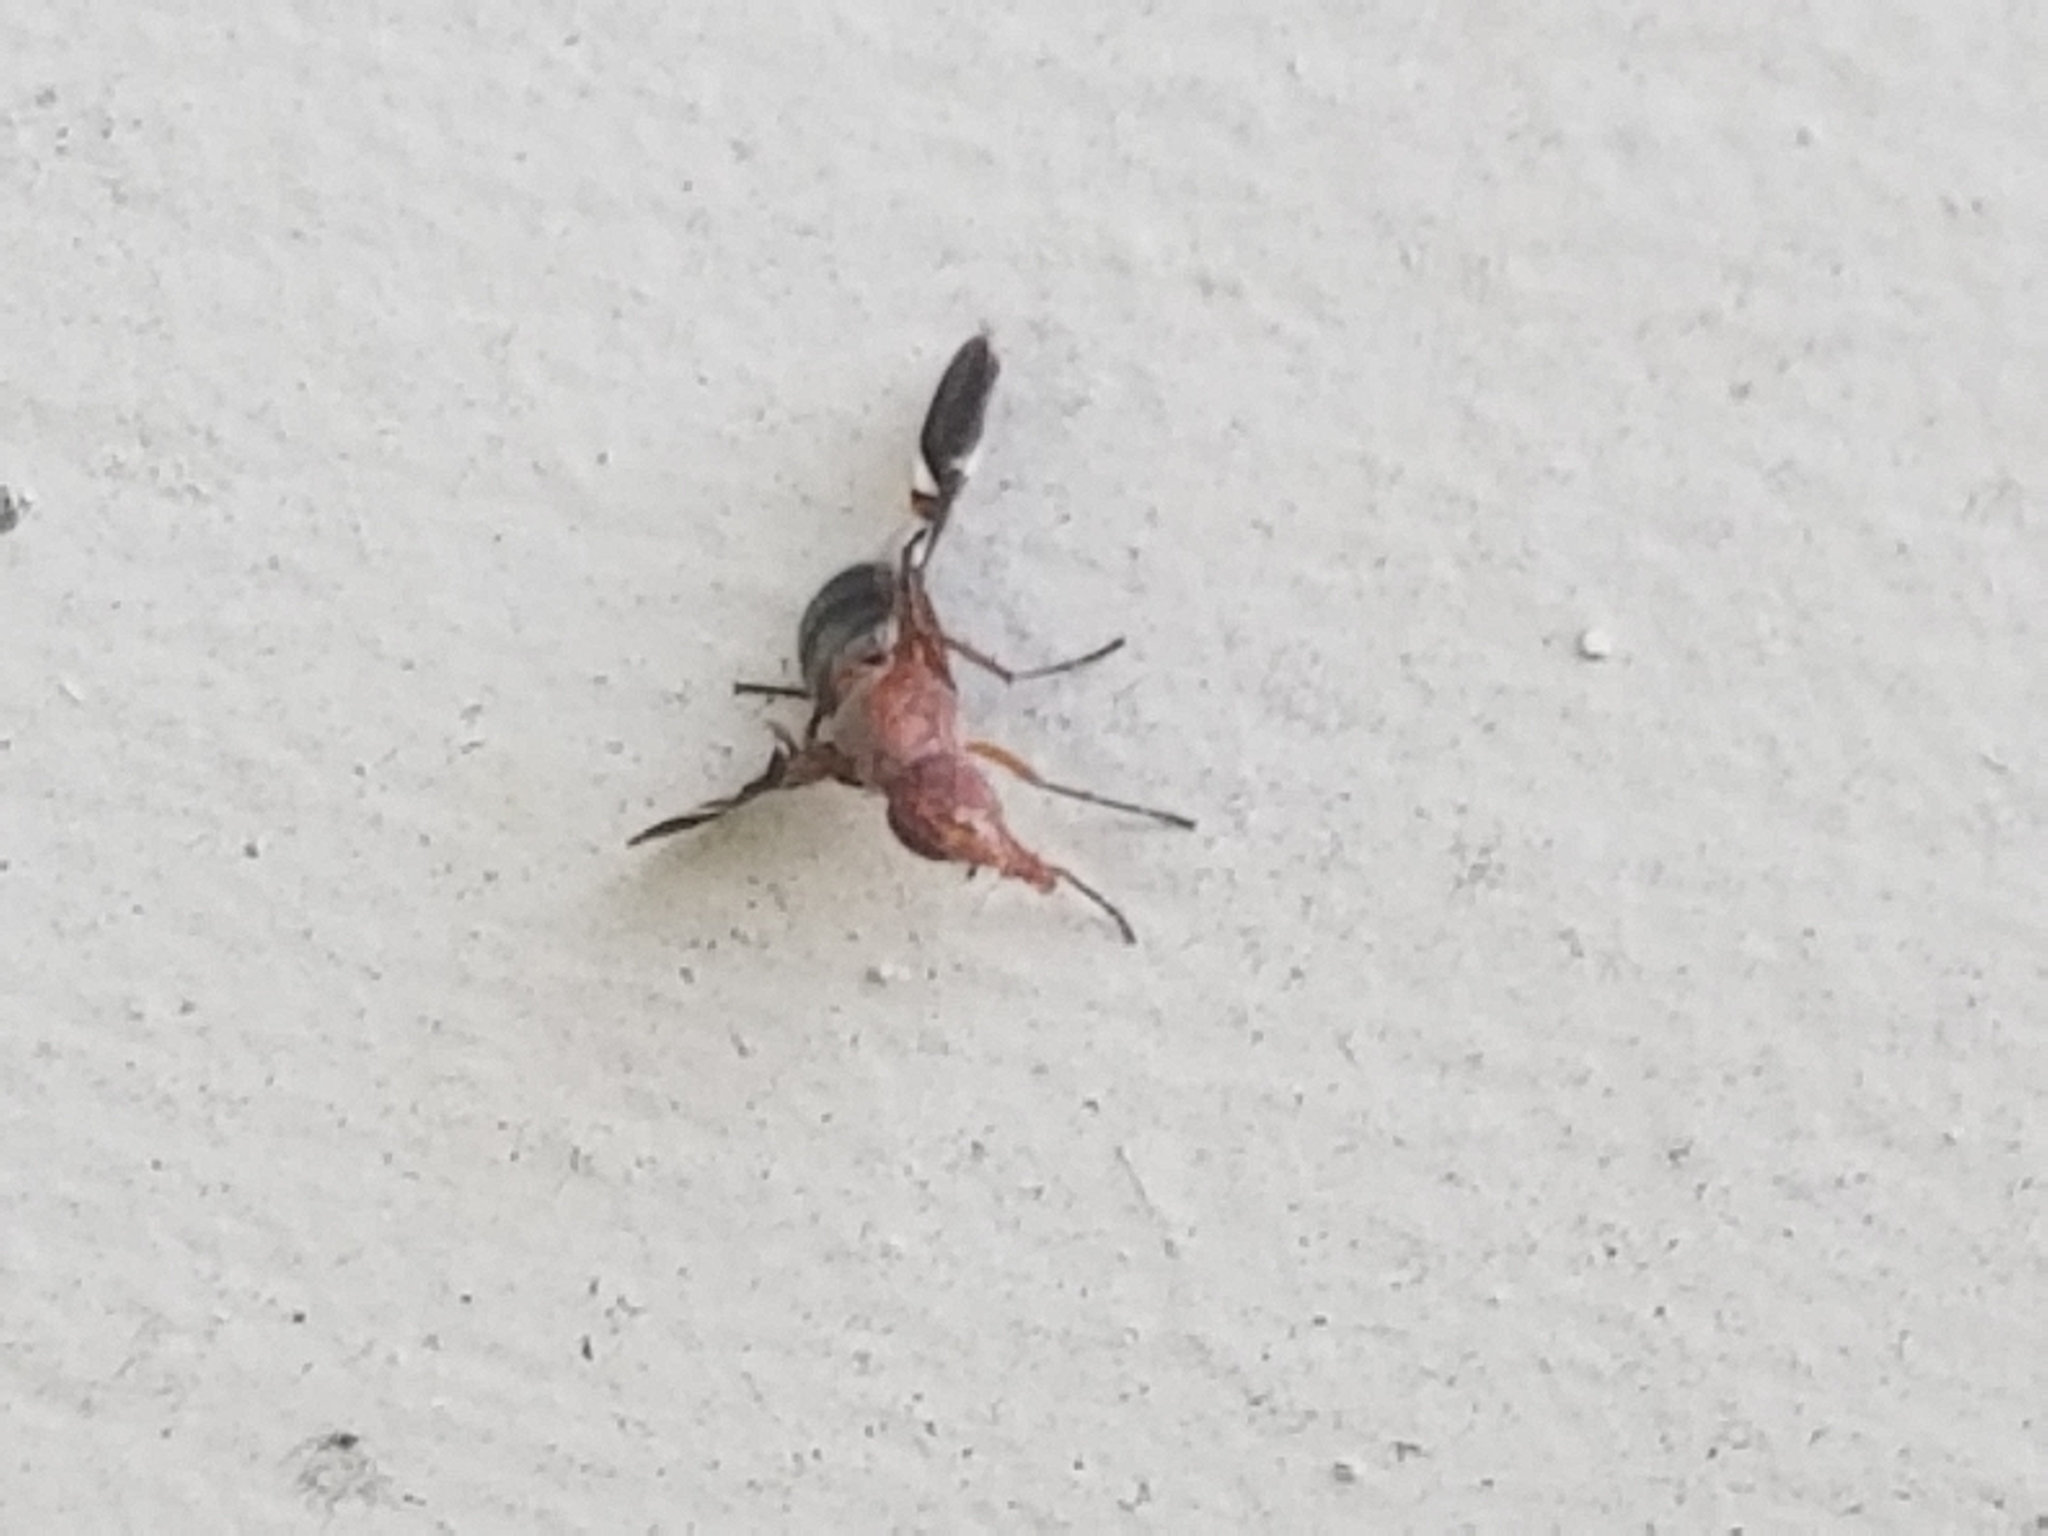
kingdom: Animalia
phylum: Arthropoda
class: Insecta
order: Diptera
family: Ulidiidae
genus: Delphinia
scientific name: Delphinia picta
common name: Common picture-winged fly
